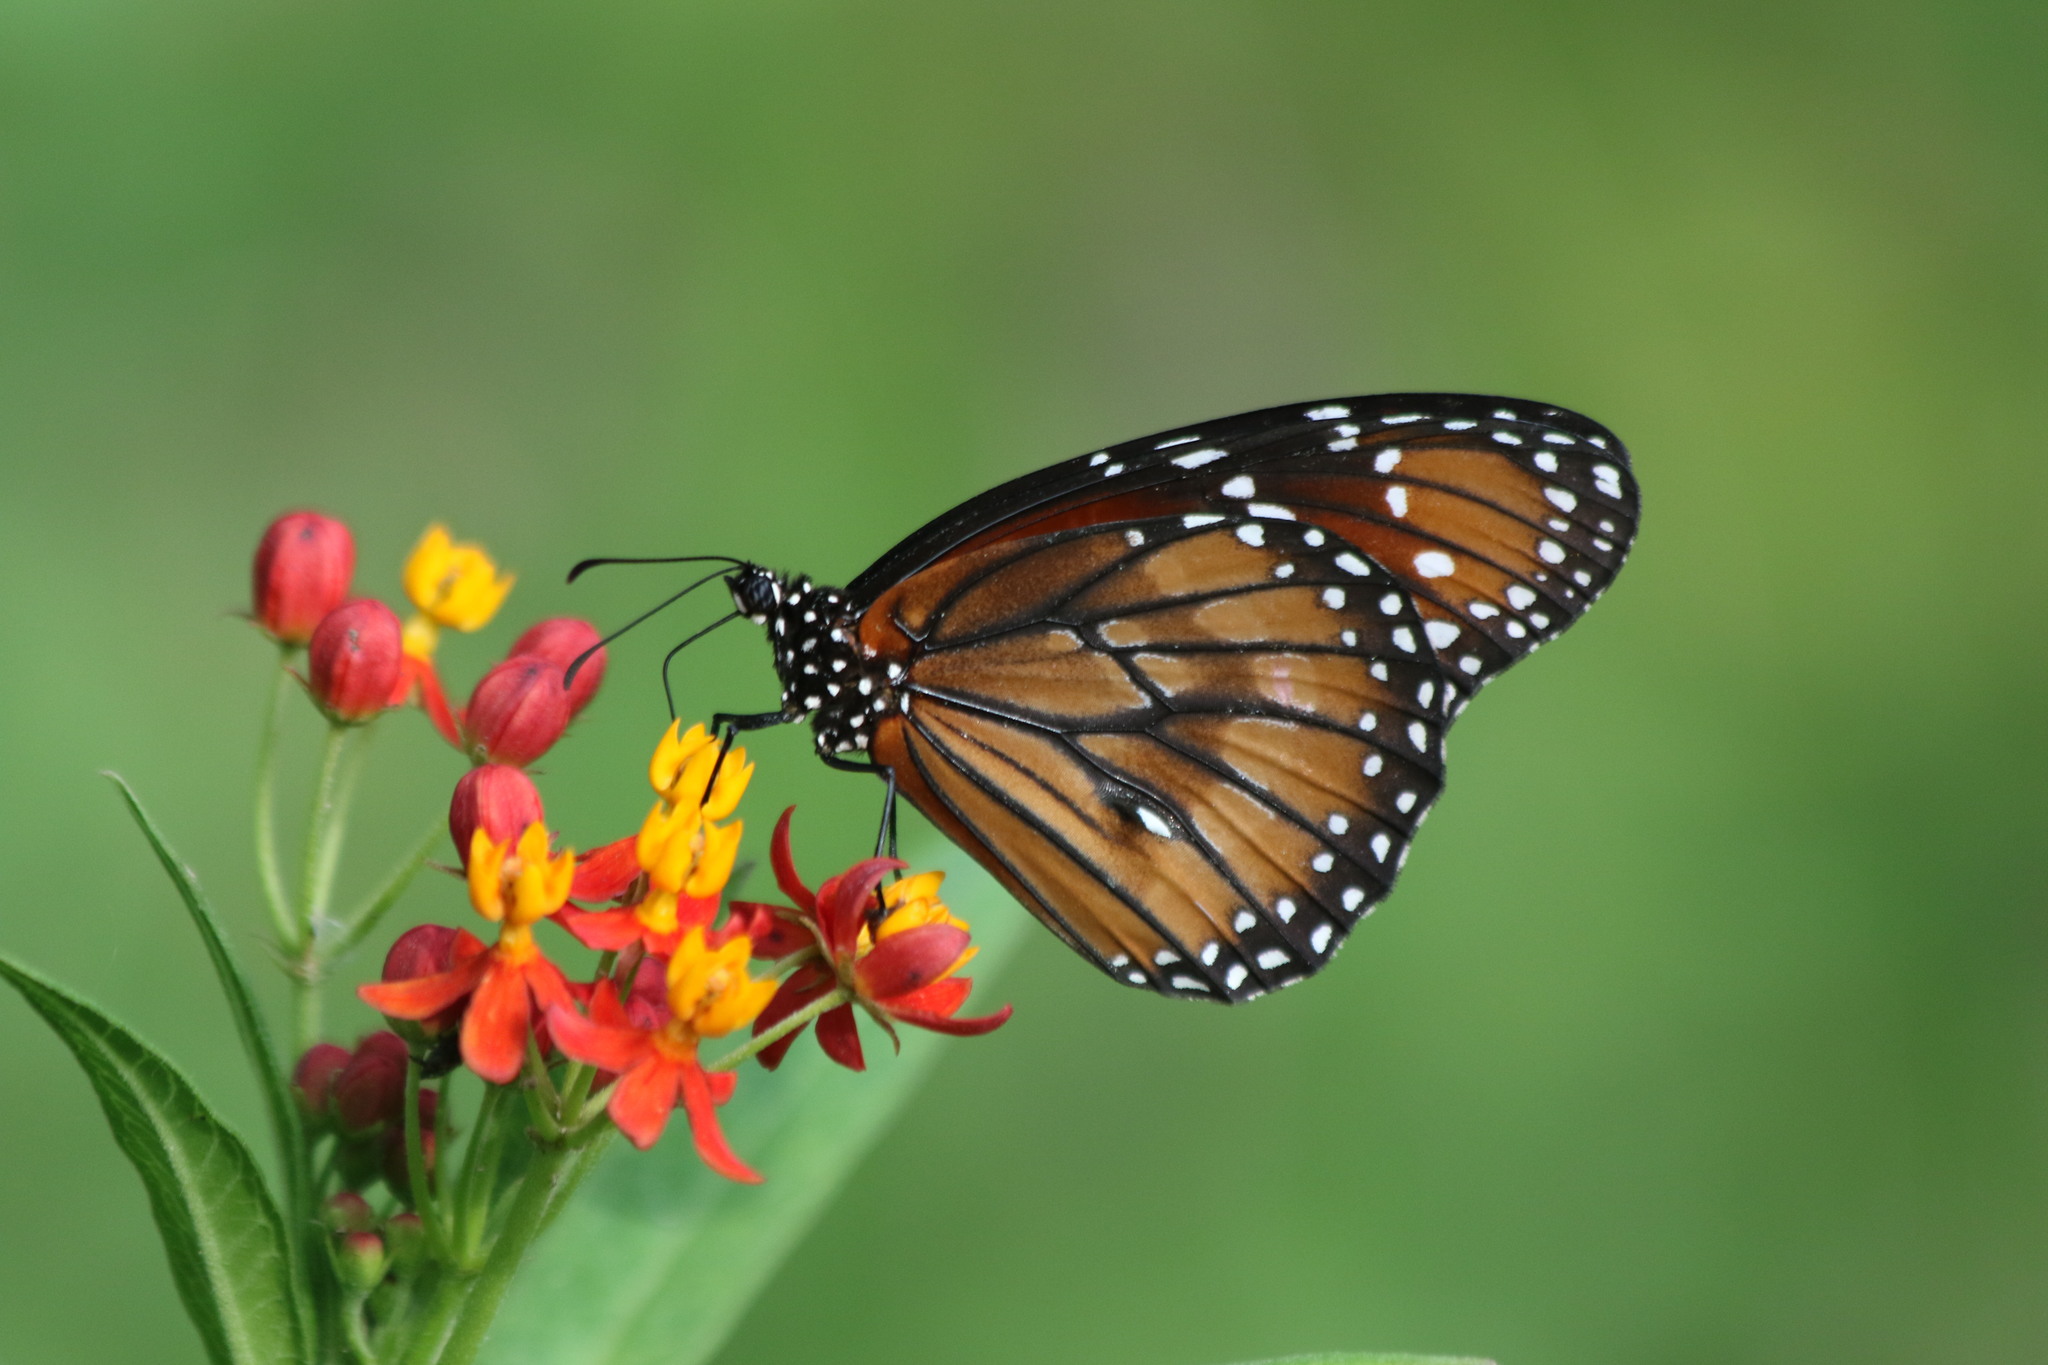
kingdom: Animalia
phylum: Arthropoda
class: Insecta
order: Lepidoptera
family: Nymphalidae
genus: Danaus
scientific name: Danaus eresimus
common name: Soldier
